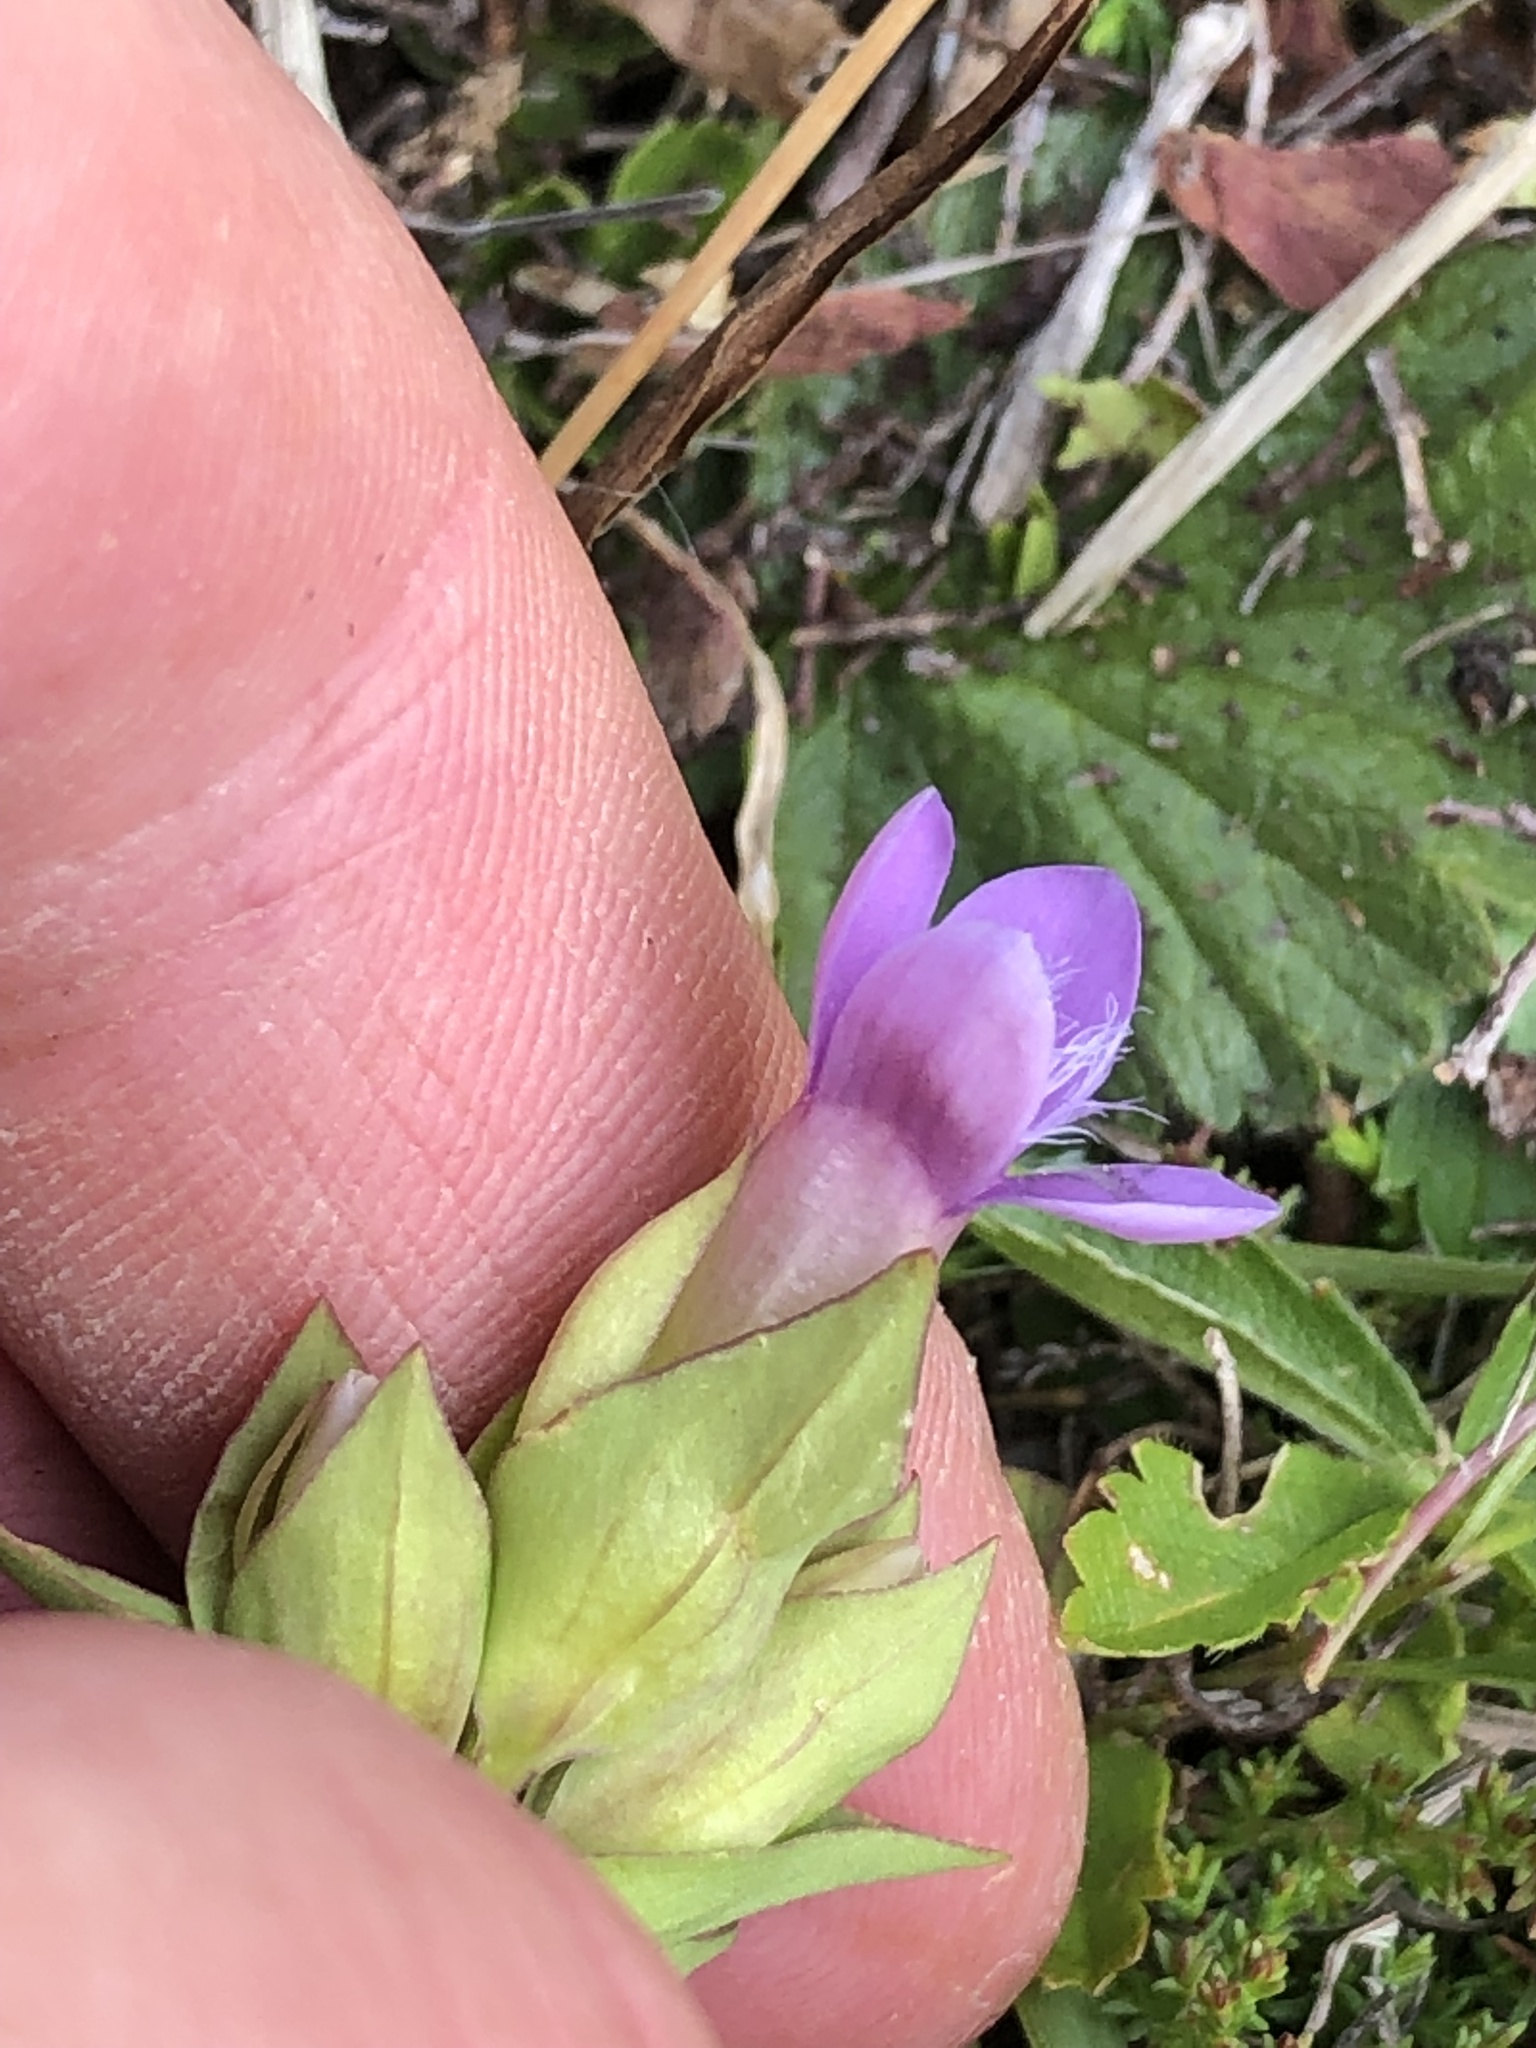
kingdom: Plantae
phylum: Tracheophyta
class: Magnoliopsida
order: Gentianales
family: Gentianaceae
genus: Gentianella
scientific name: Gentianella campestris
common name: Field gentian
